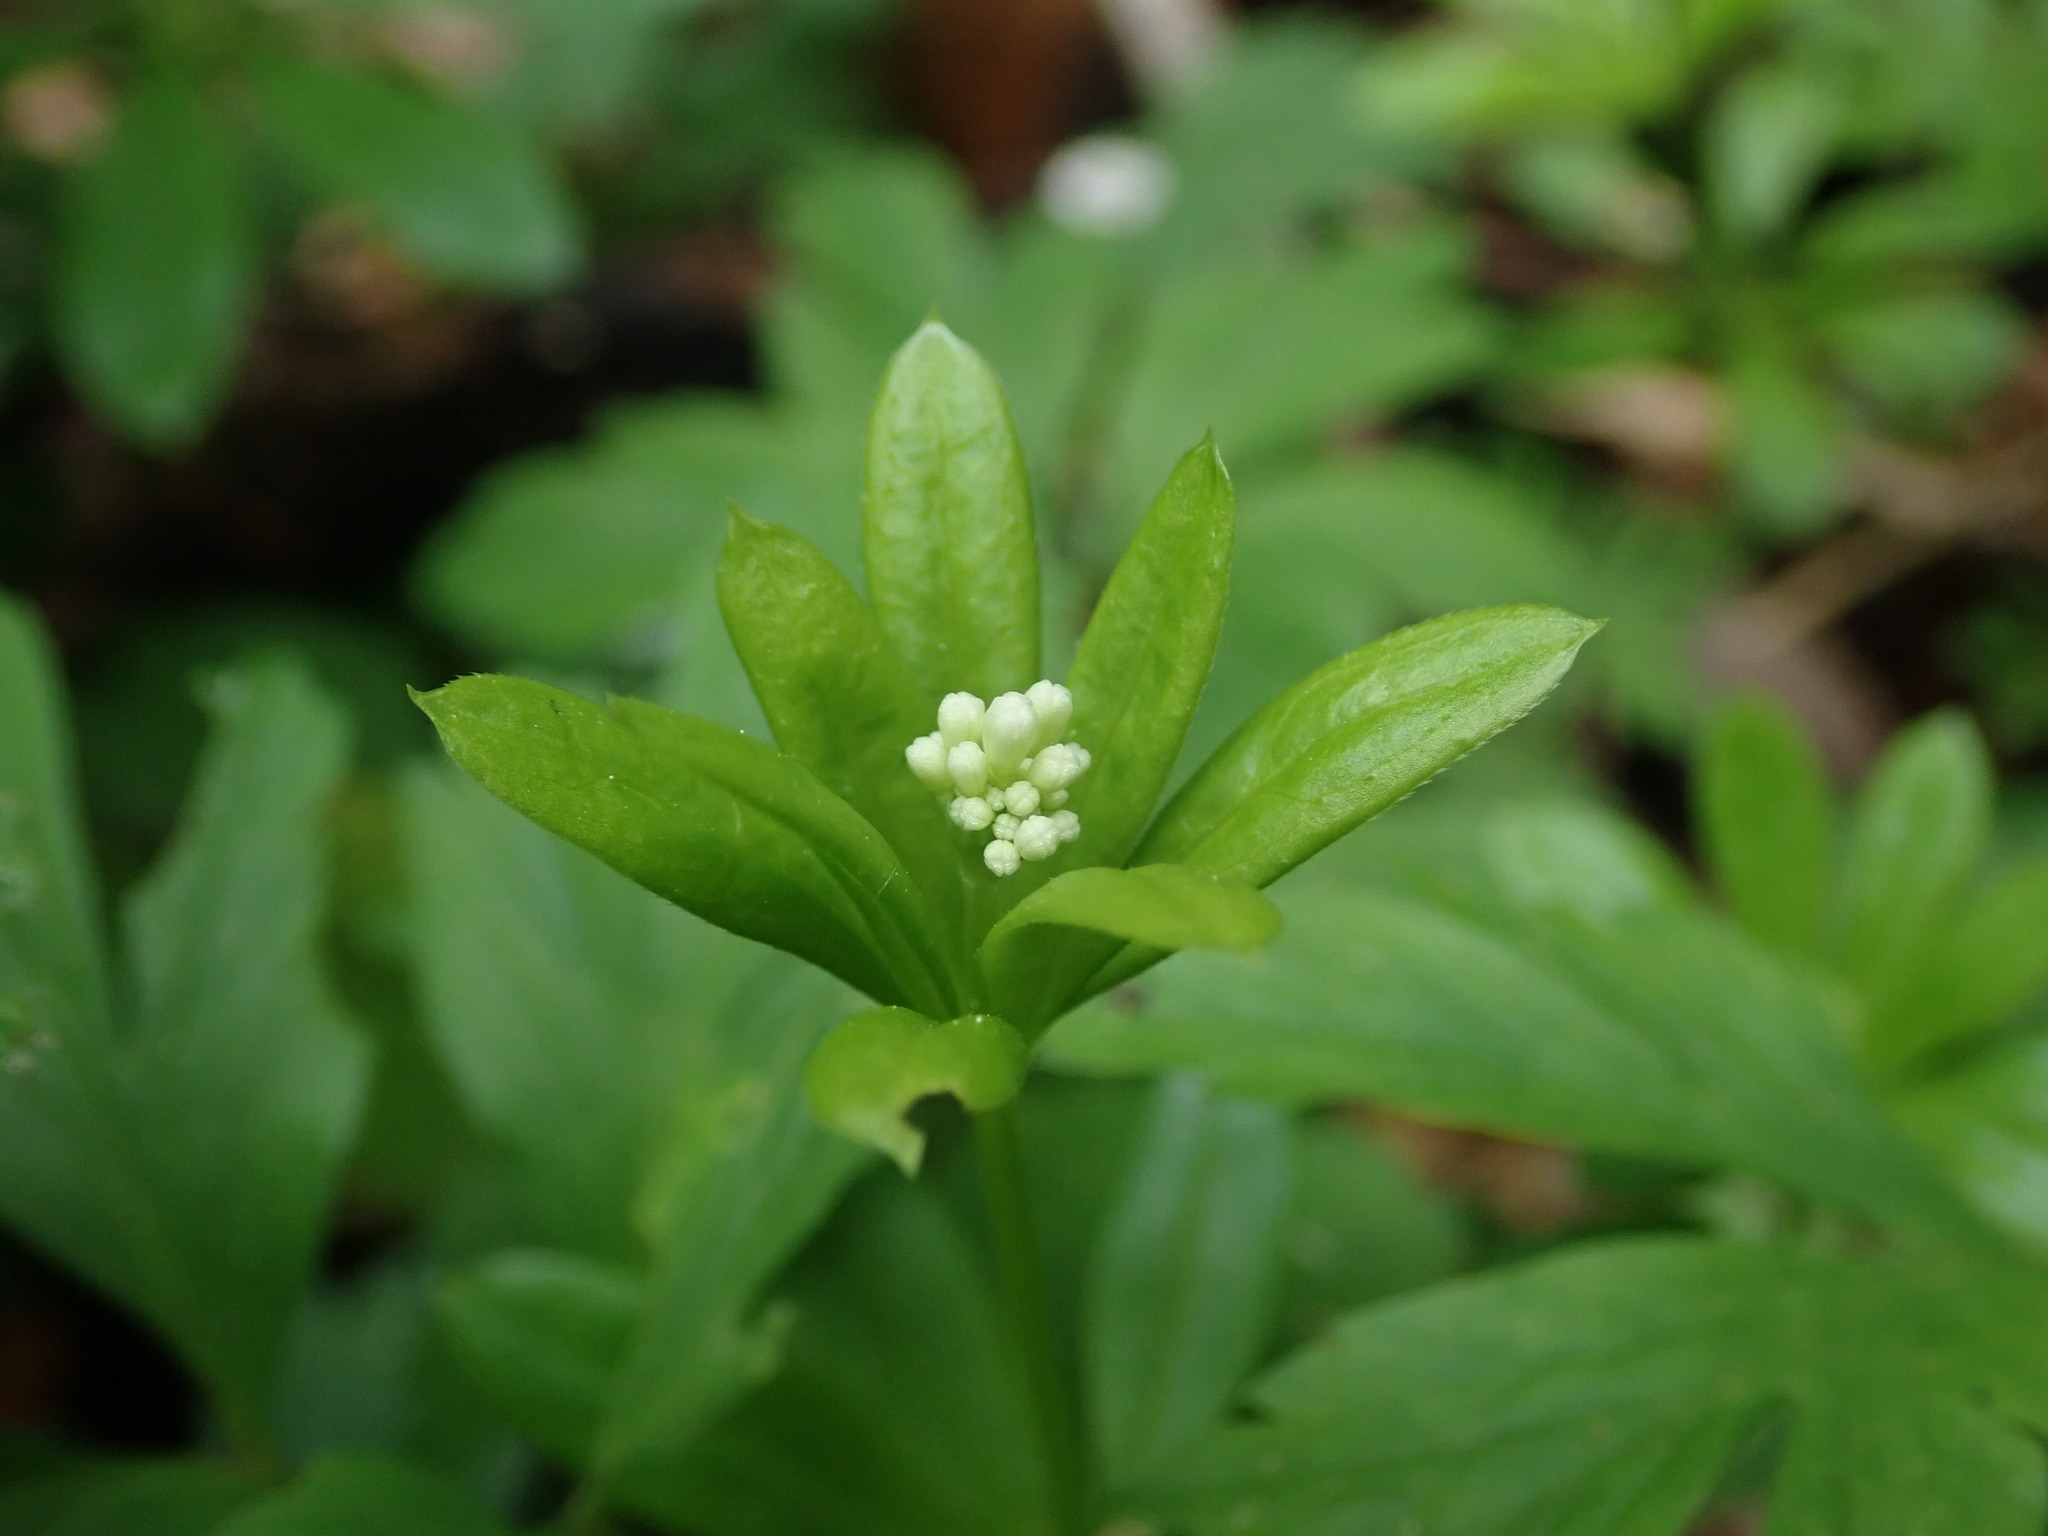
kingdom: Plantae
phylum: Tracheophyta
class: Magnoliopsida
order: Gentianales
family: Rubiaceae
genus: Galium
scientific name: Galium odoratum
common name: Sweet woodruff
